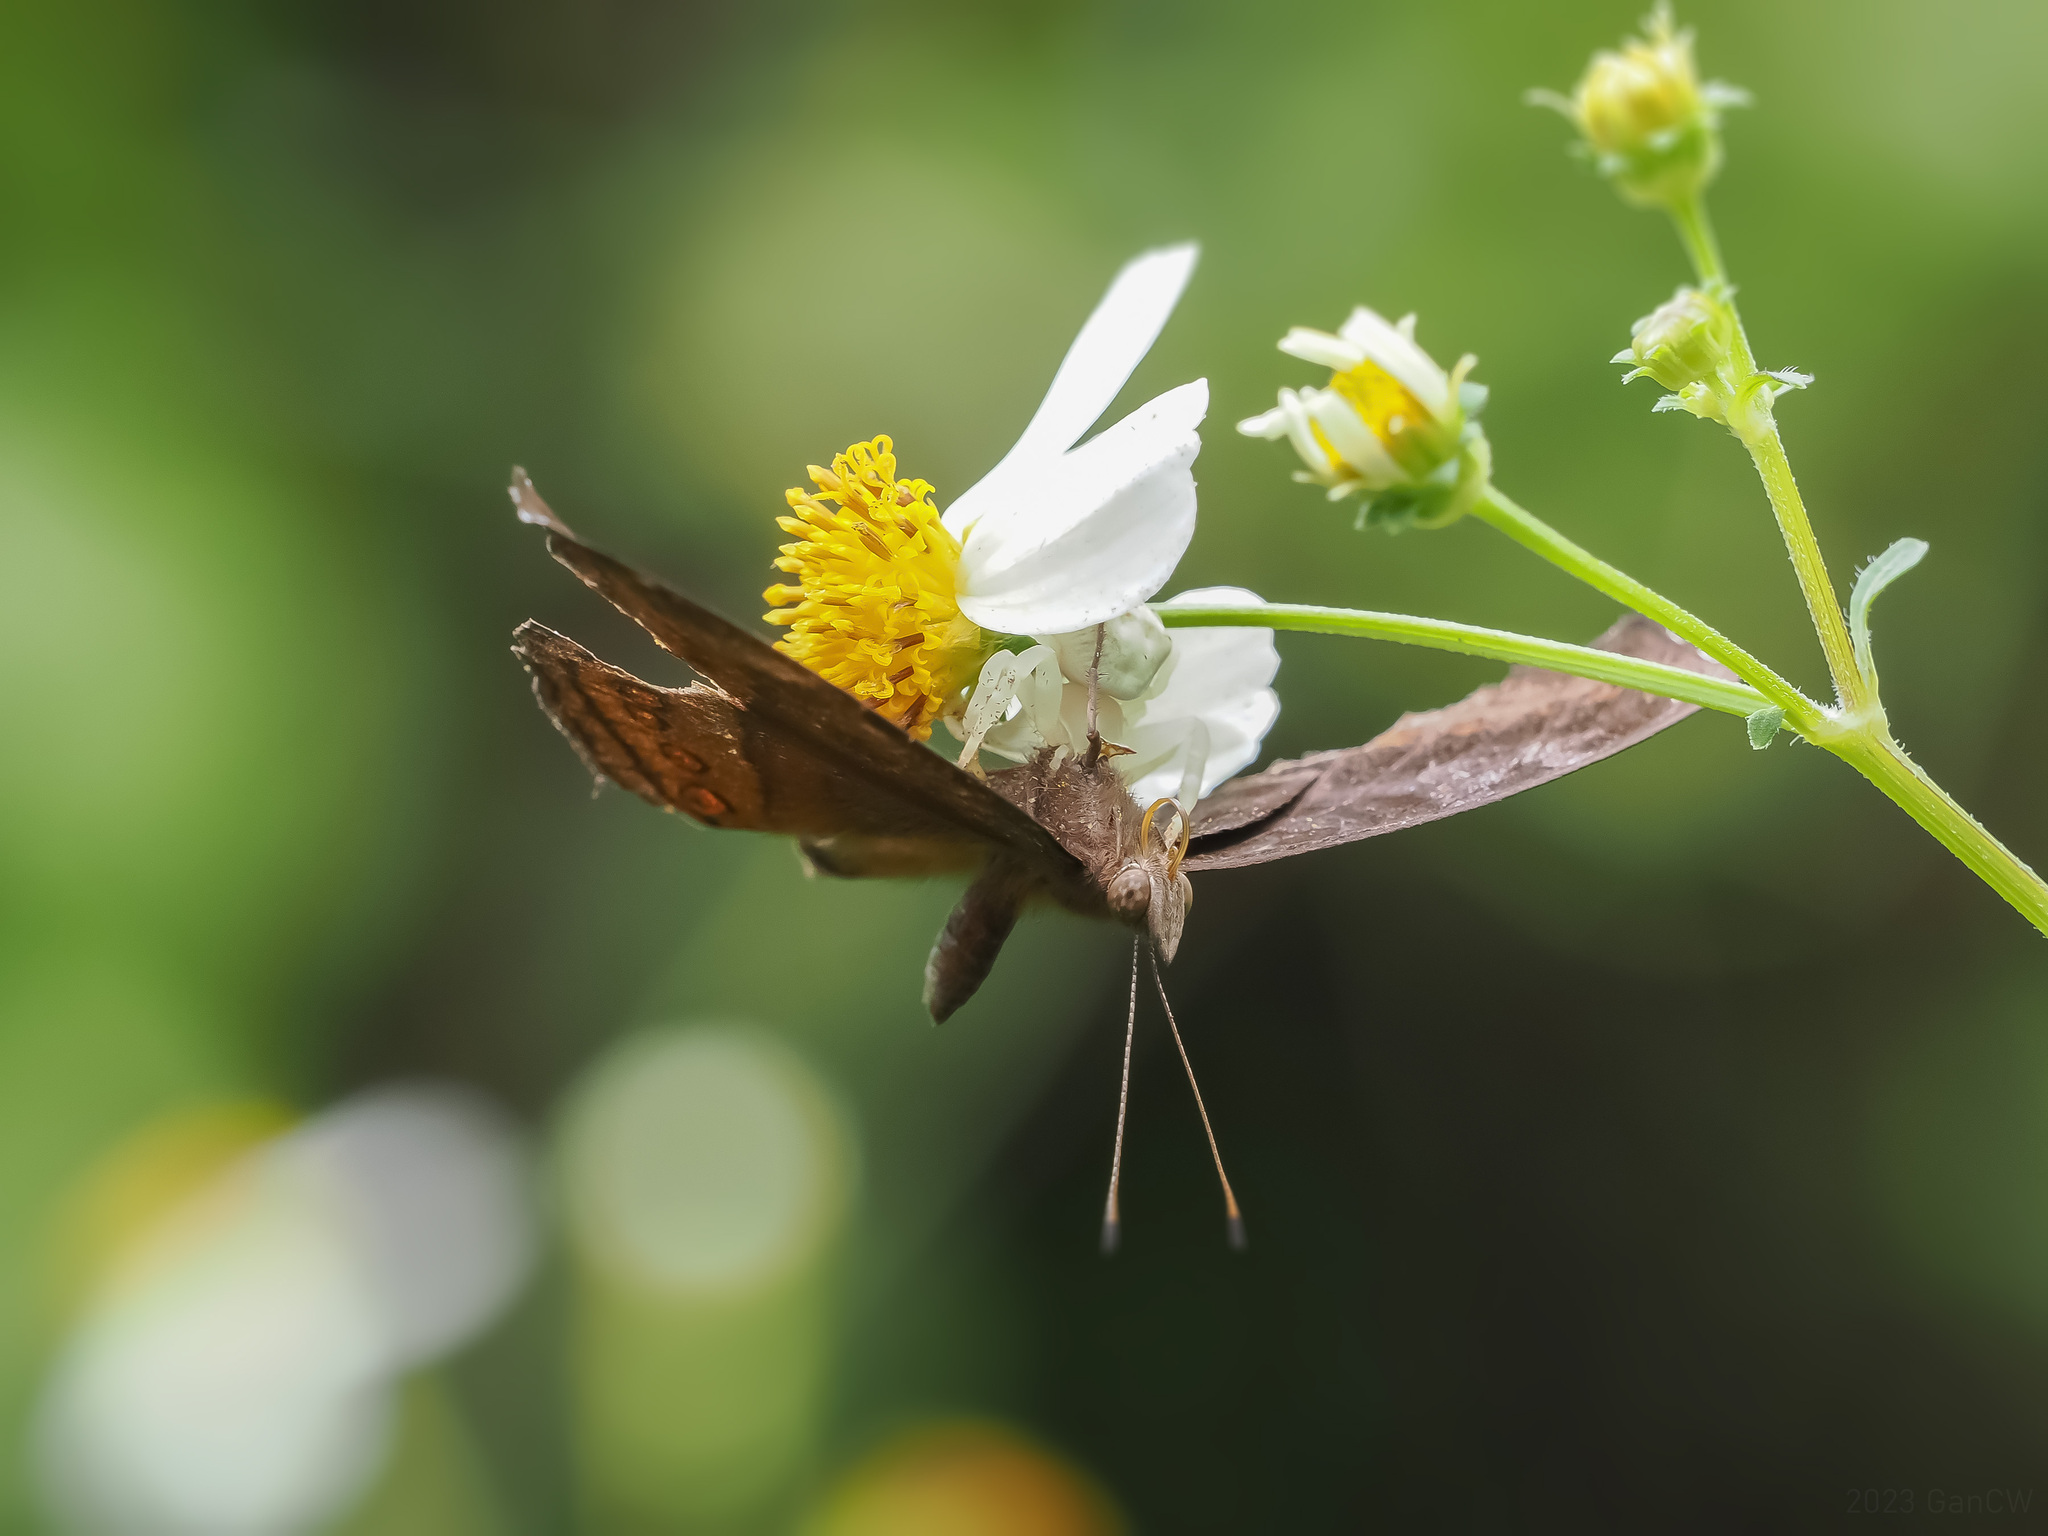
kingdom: Animalia
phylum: Arthropoda
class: Insecta
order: Lepidoptera
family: Nymphalidae
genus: Junonia
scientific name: Junonia hedonia
